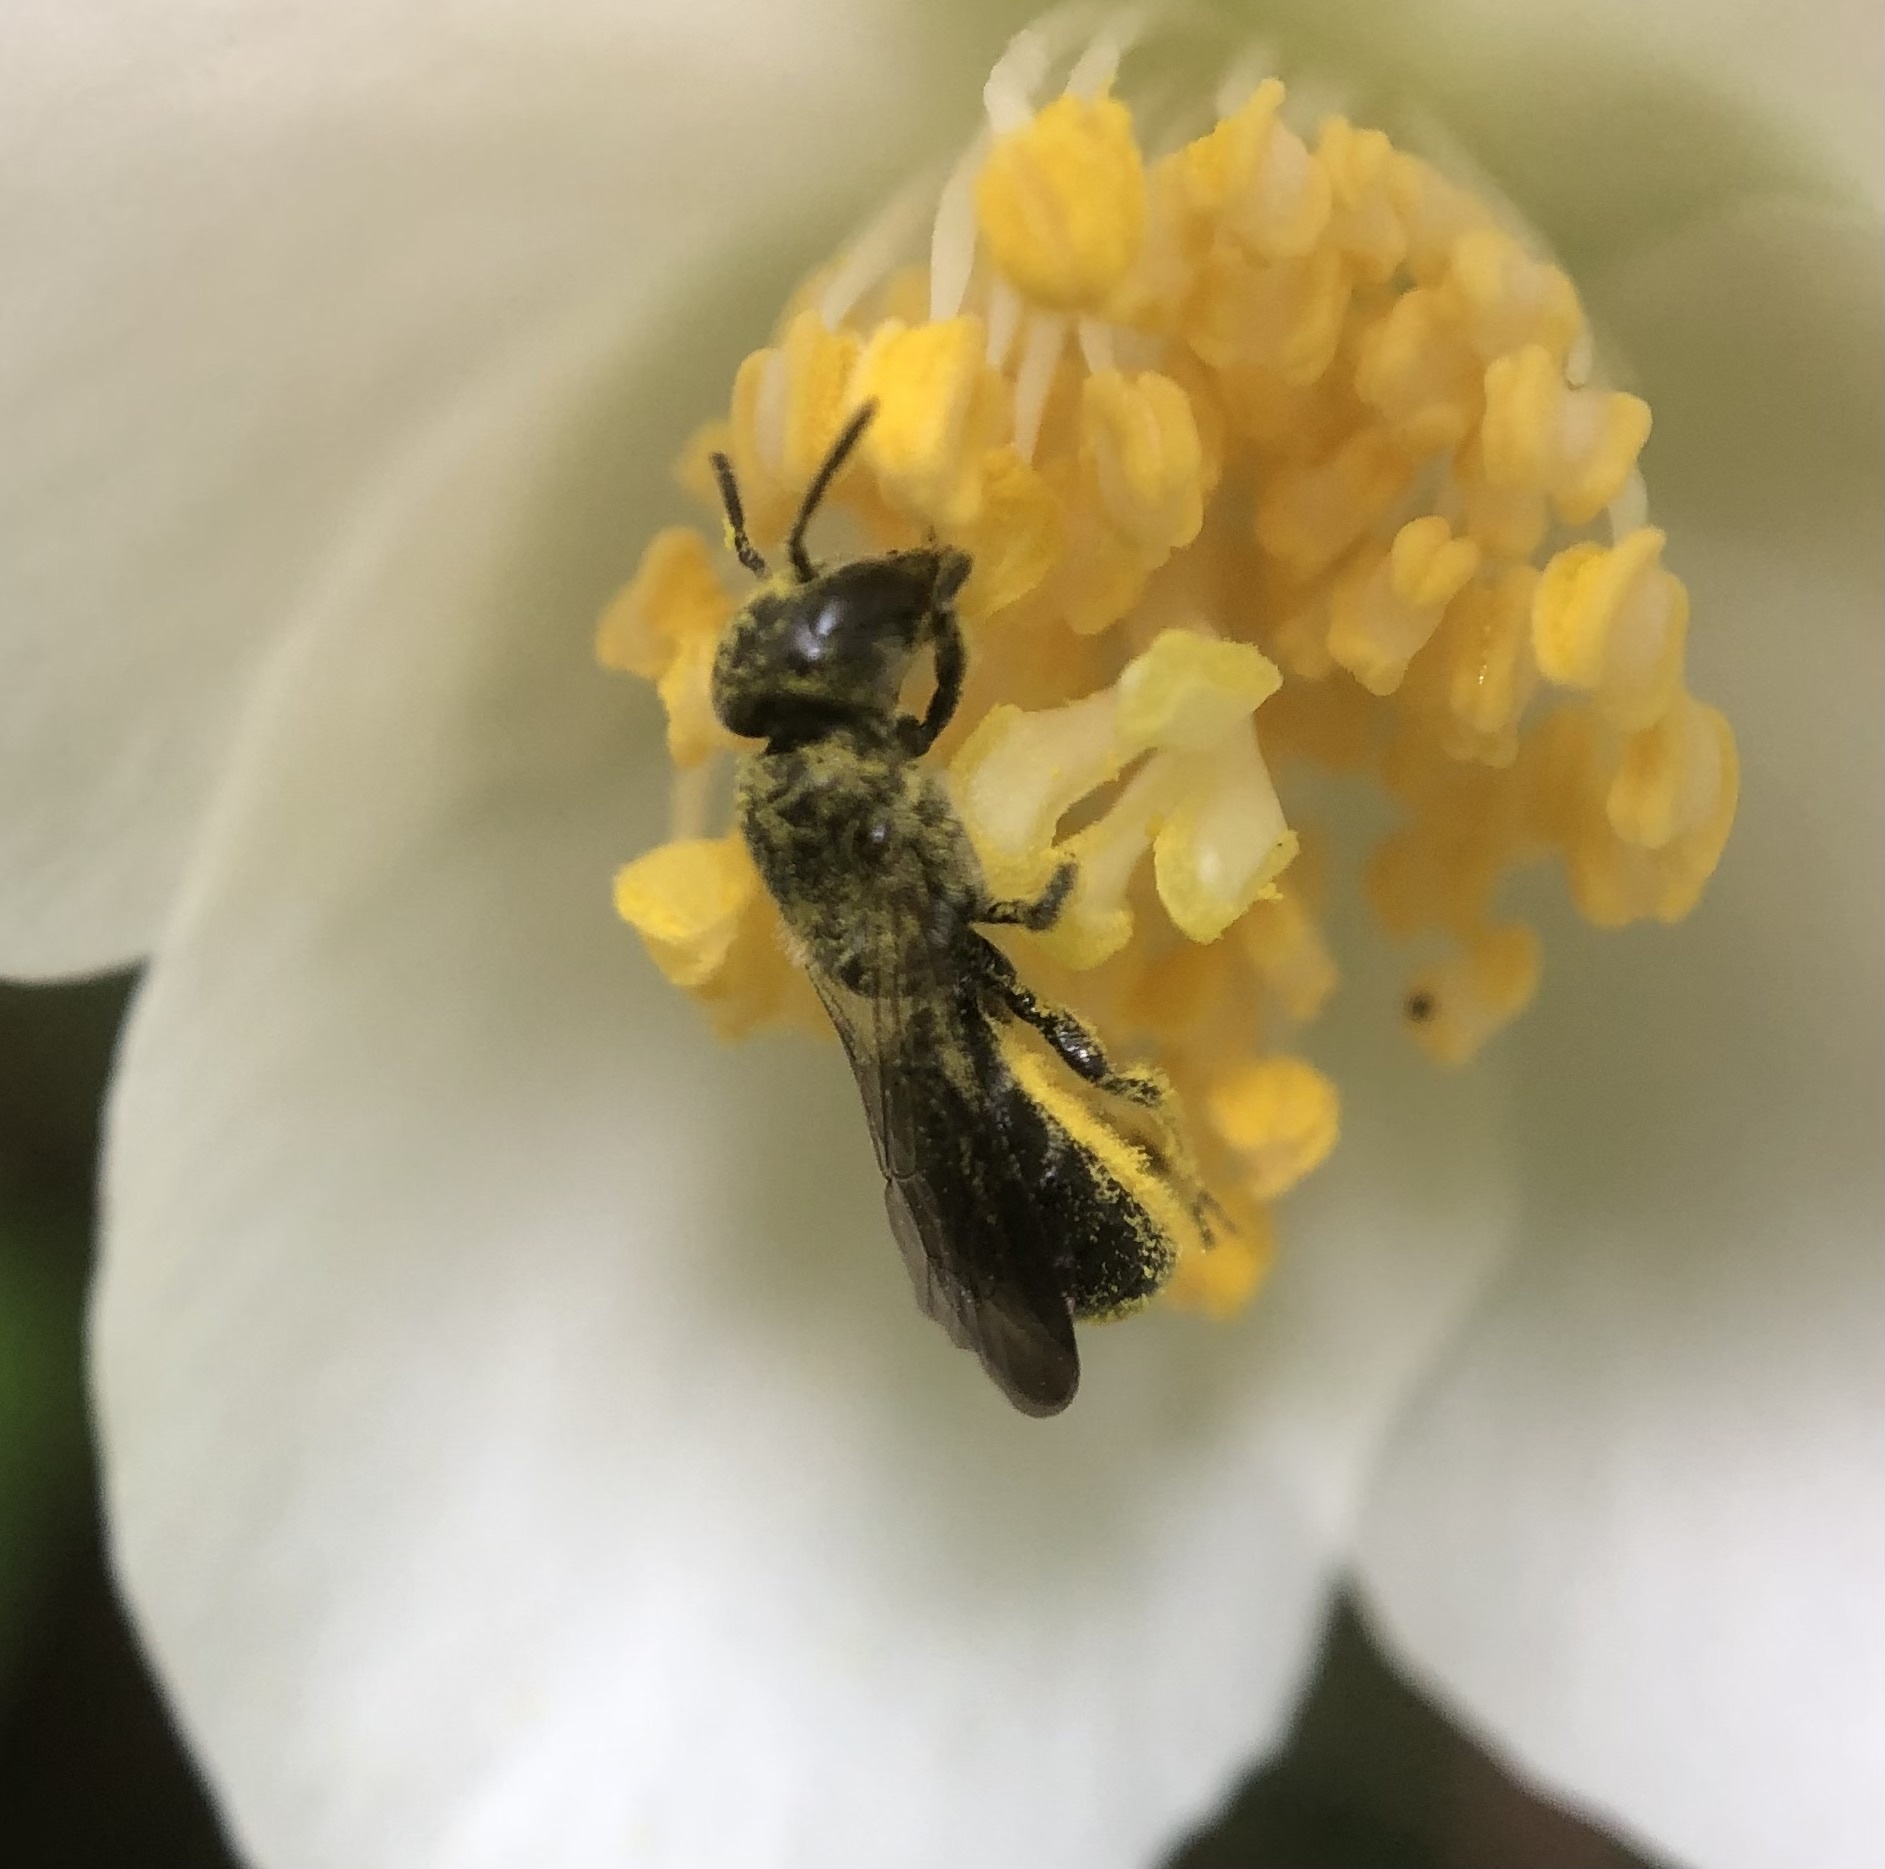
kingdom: Animalia
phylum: Arthropoda
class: Insecta
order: Hymenoptera
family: Megachilidae
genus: Chelostoma
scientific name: Chelostoma philadelphi
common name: Mock-orange scissor bee
